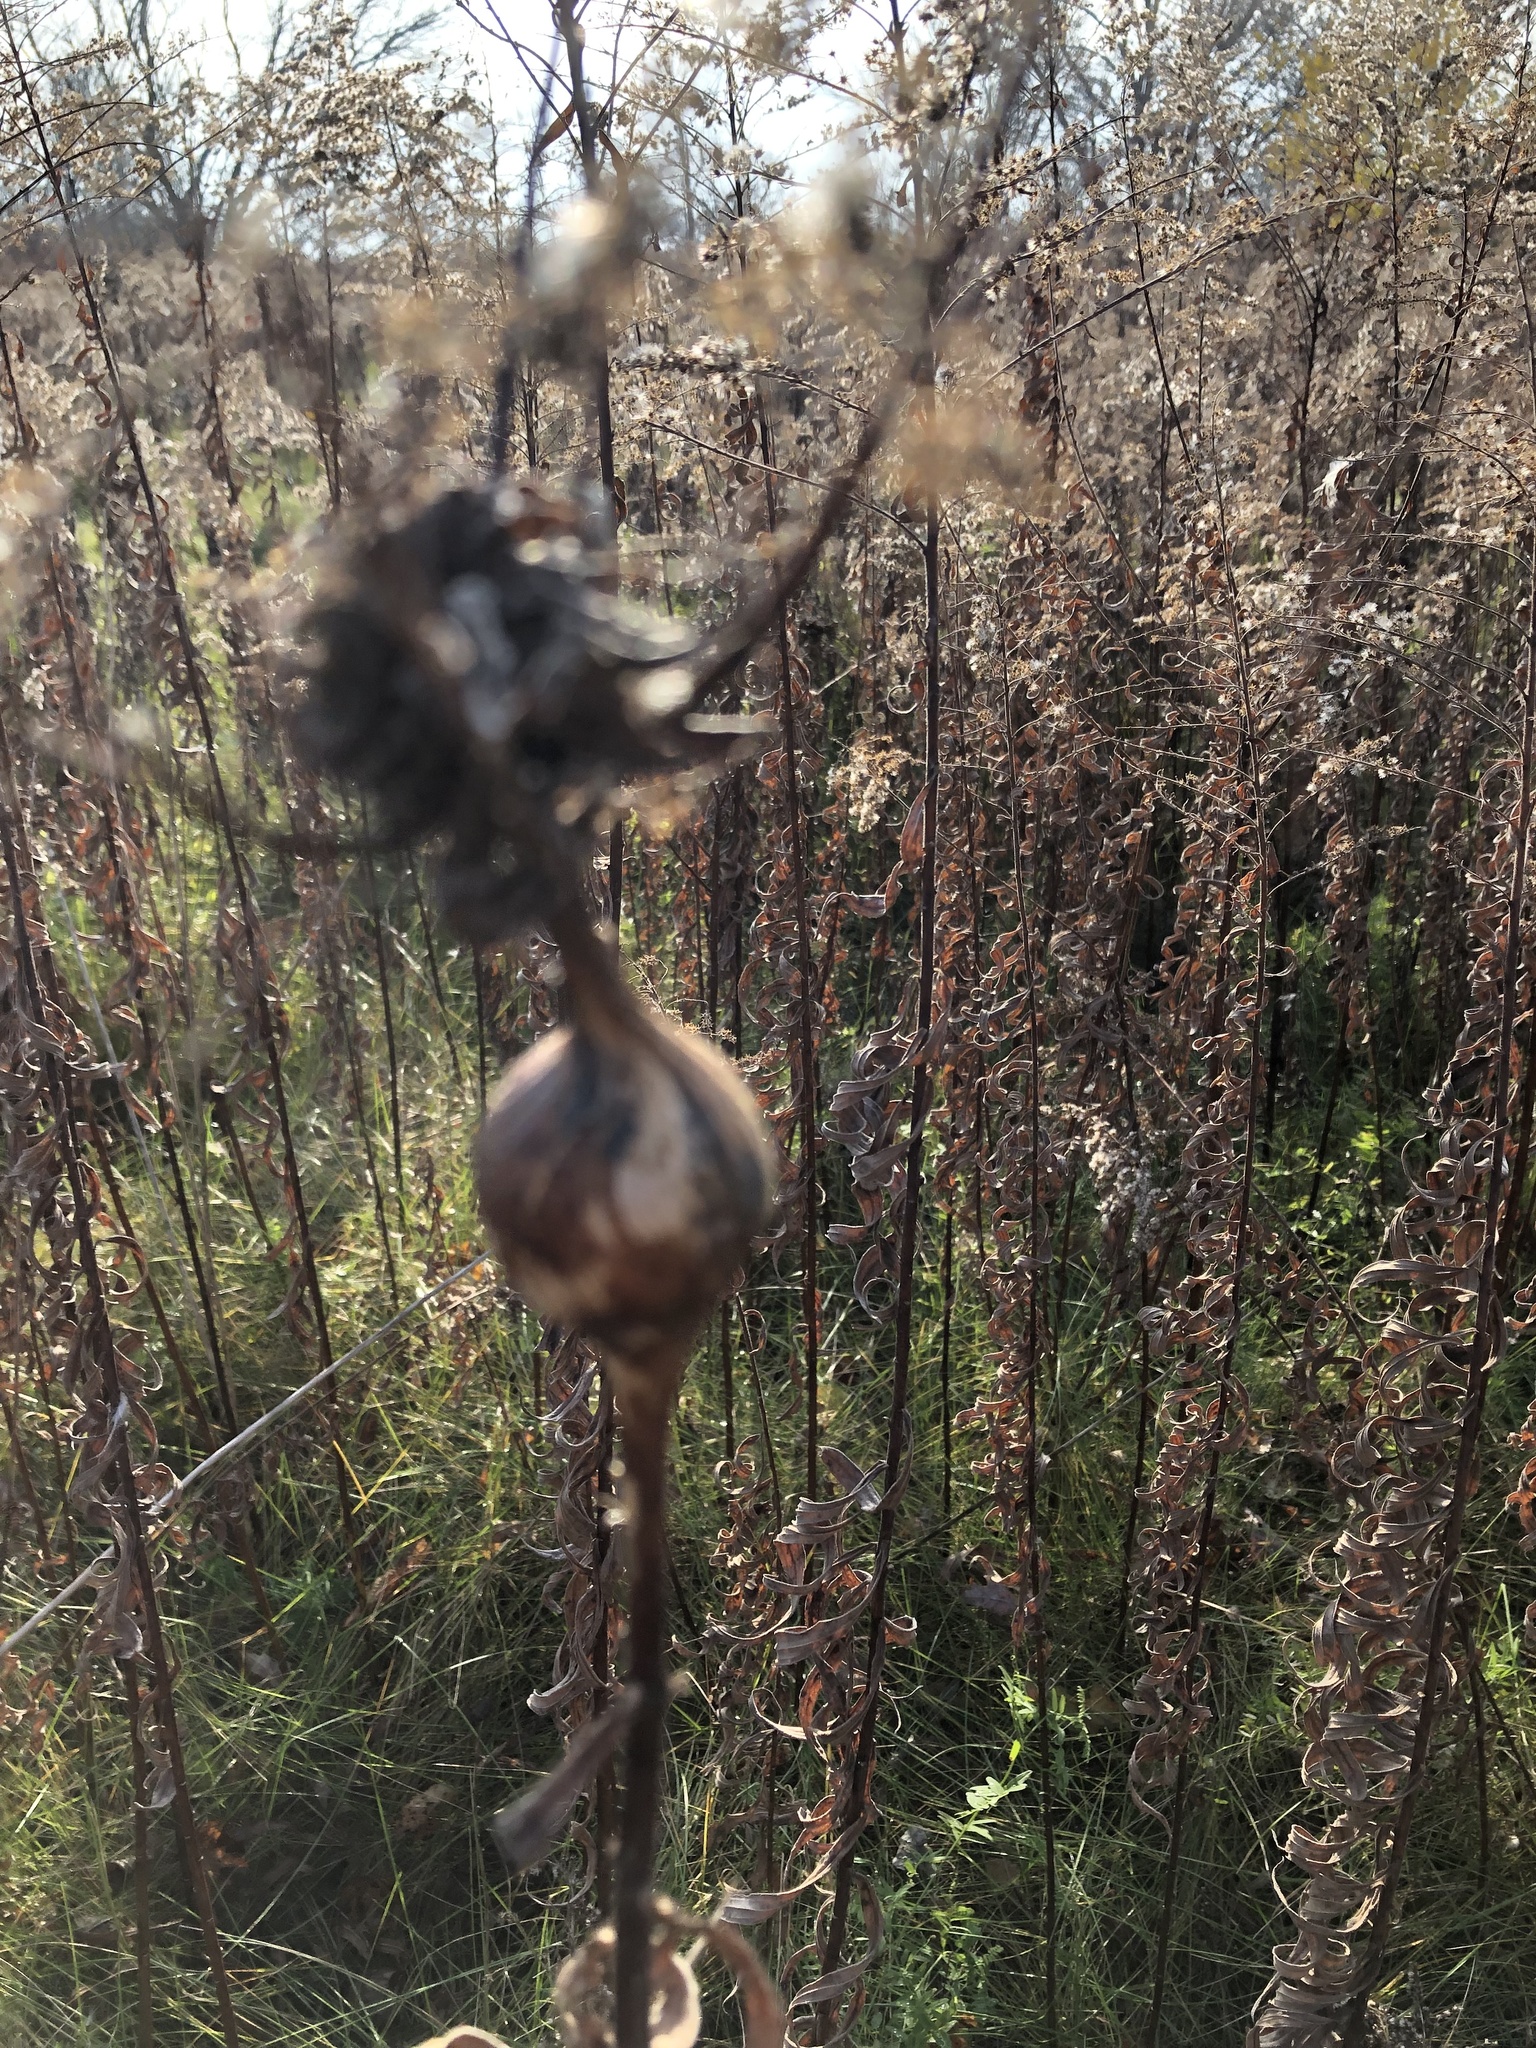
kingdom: Animalia
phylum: Arthropoda
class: Insecta
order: Diptera
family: Tephritidae
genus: Eurosta
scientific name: Eurosta solidaginis
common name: Goldenrod gall fly
